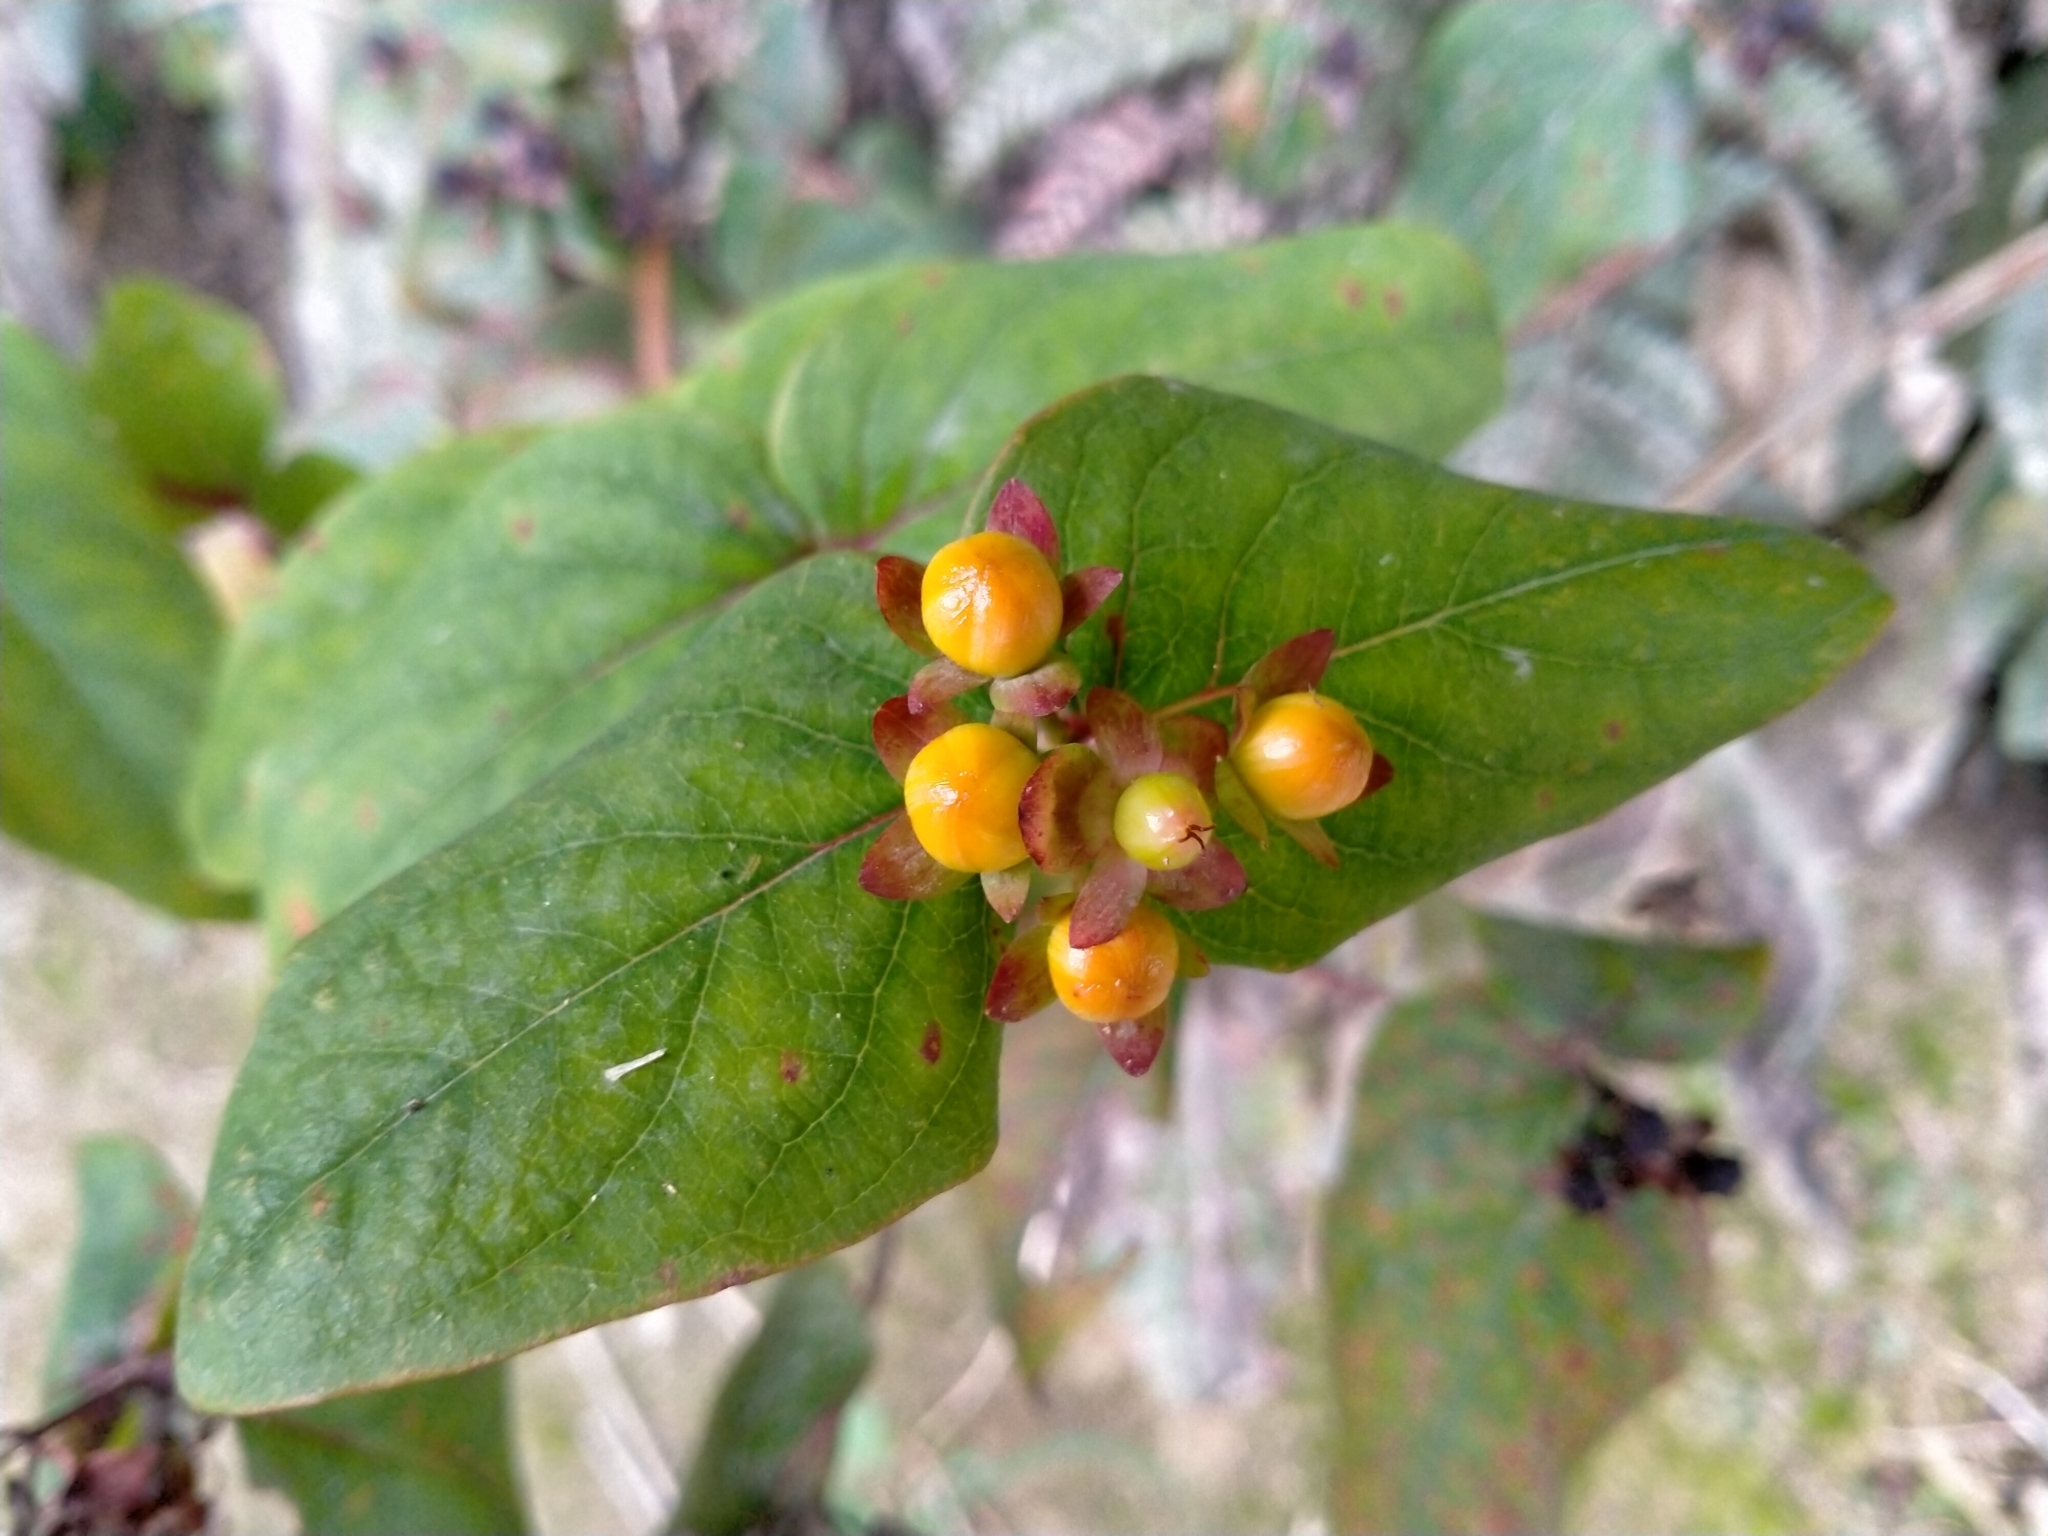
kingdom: Plantae
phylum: Tracheophyta
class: Magnoliopsida
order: Malpighiales
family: Hypericaceae
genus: Hypericum
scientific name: Hypericum androsaemum
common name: Sweet-amber
